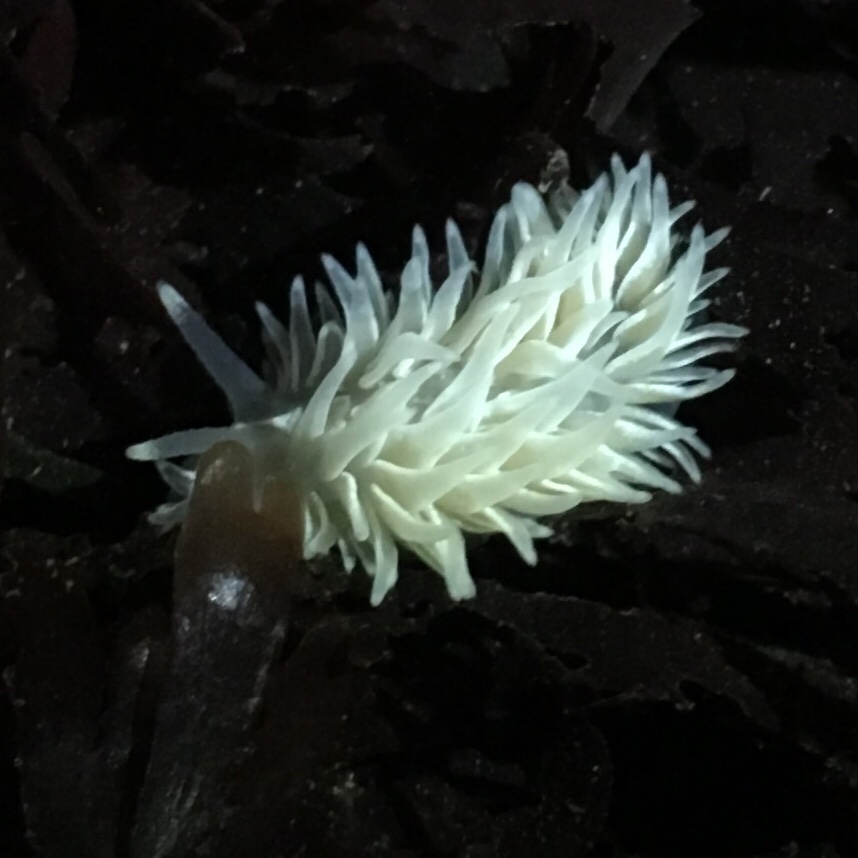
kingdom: Animalia
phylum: Mollusca
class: Gastropoda
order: Nudibranchia
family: Aeolidiidae
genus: Aeolidia
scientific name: Aeolidia loui
